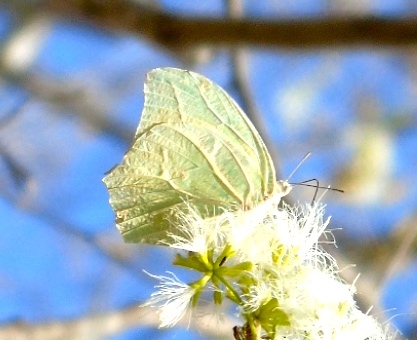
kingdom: Animalia
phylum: Arthropoda
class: Insecta
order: Lepidoptera
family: Pieridae
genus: Anteos
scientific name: Anteos clorinde
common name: White angled sulphur
